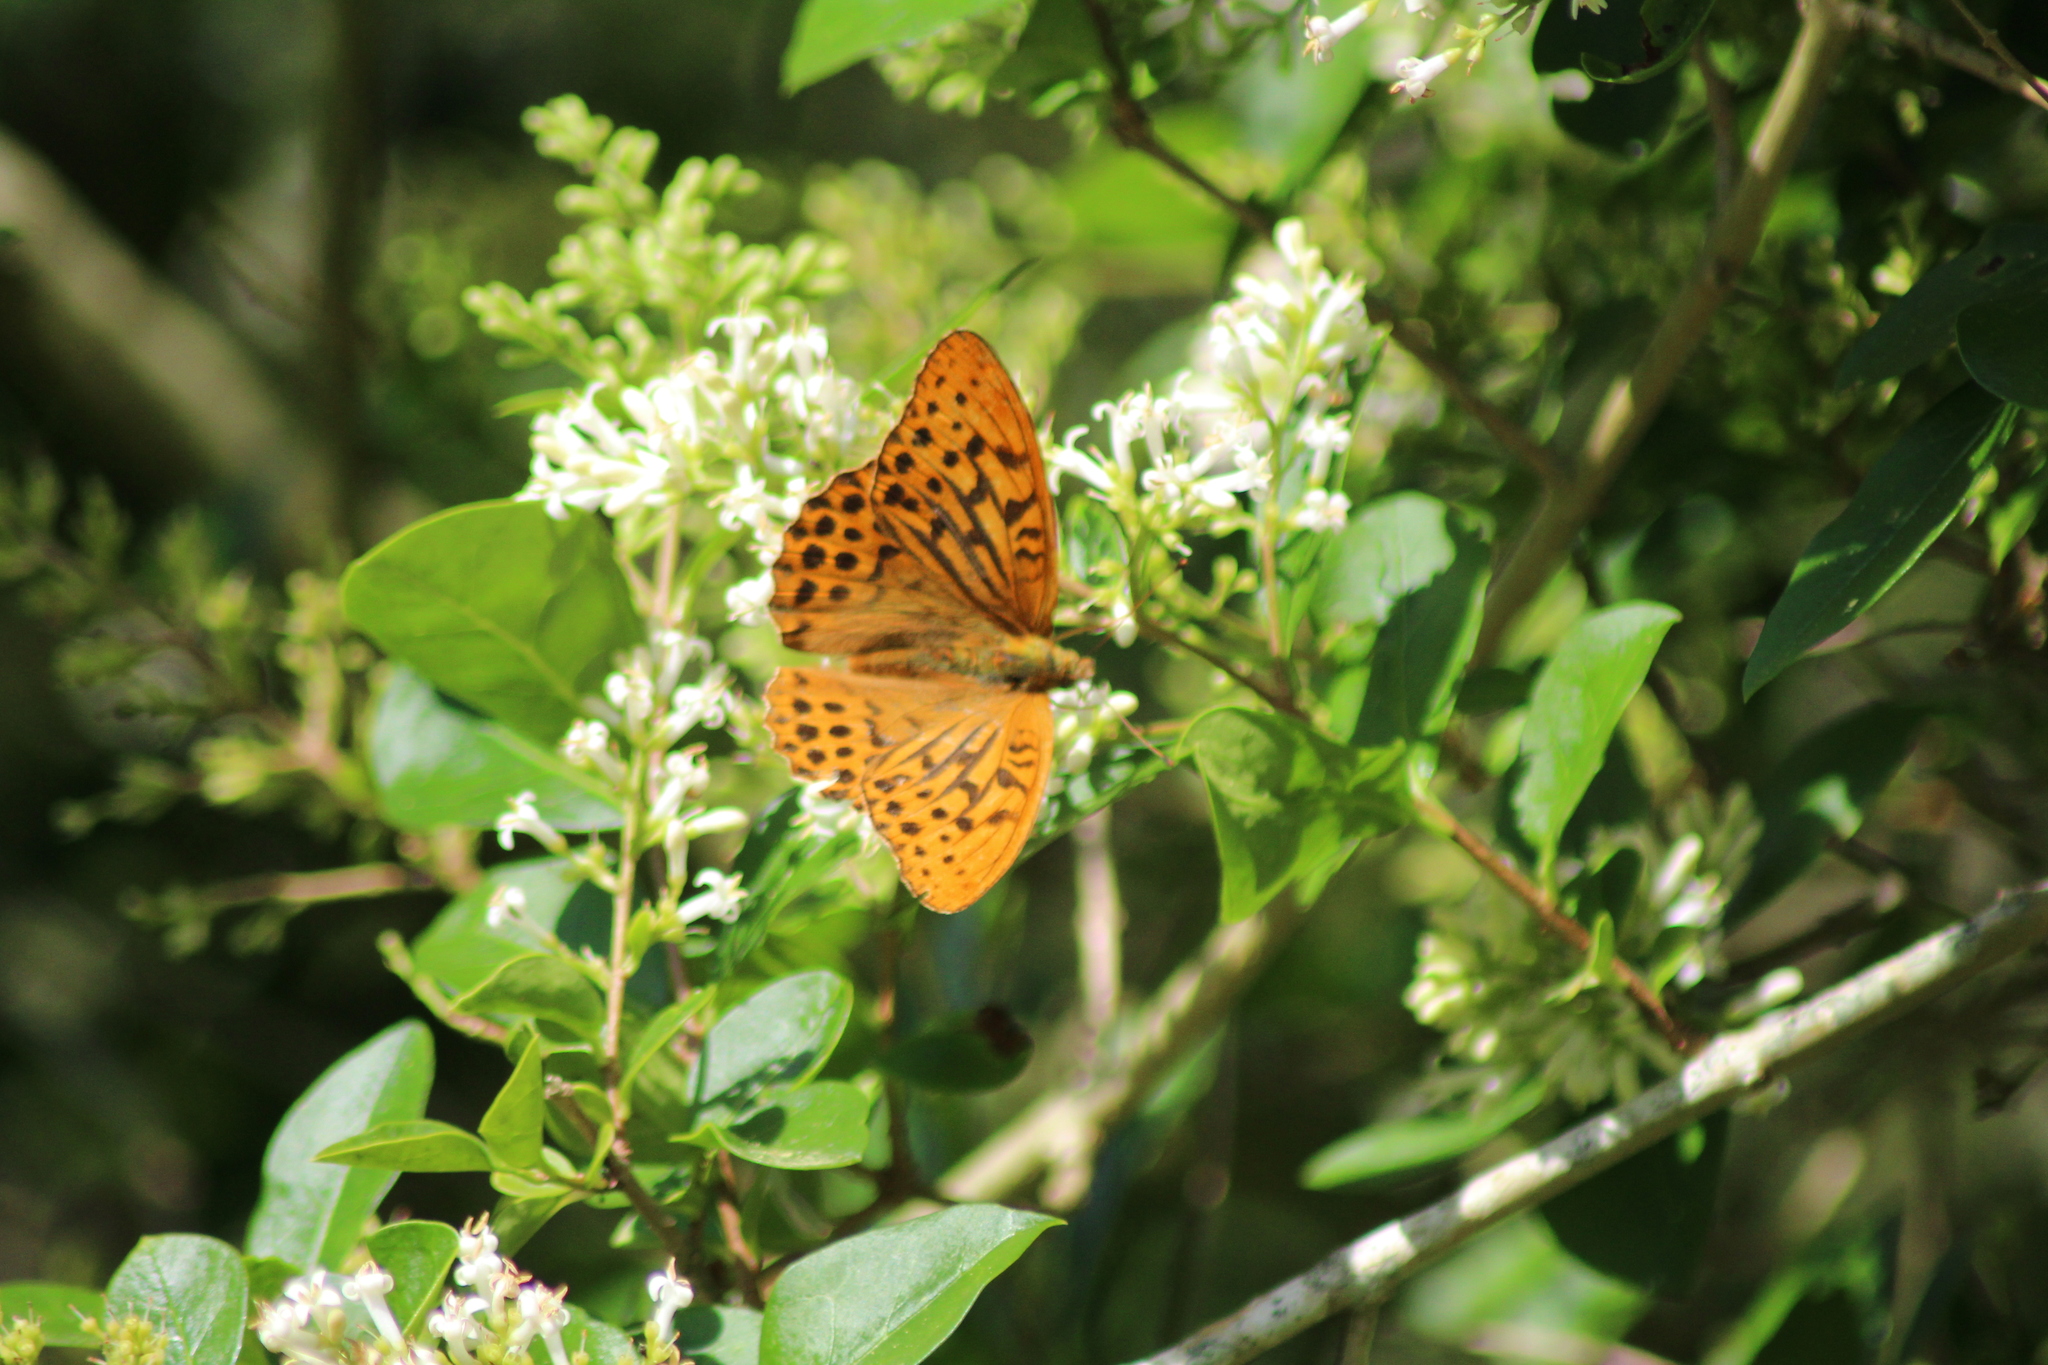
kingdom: Animalia
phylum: Arthropoda
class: Insecta
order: Lepidoptera
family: Nymphalidae
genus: Argynnis
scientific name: Argynnis paphia
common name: Silver-washed fritillary
